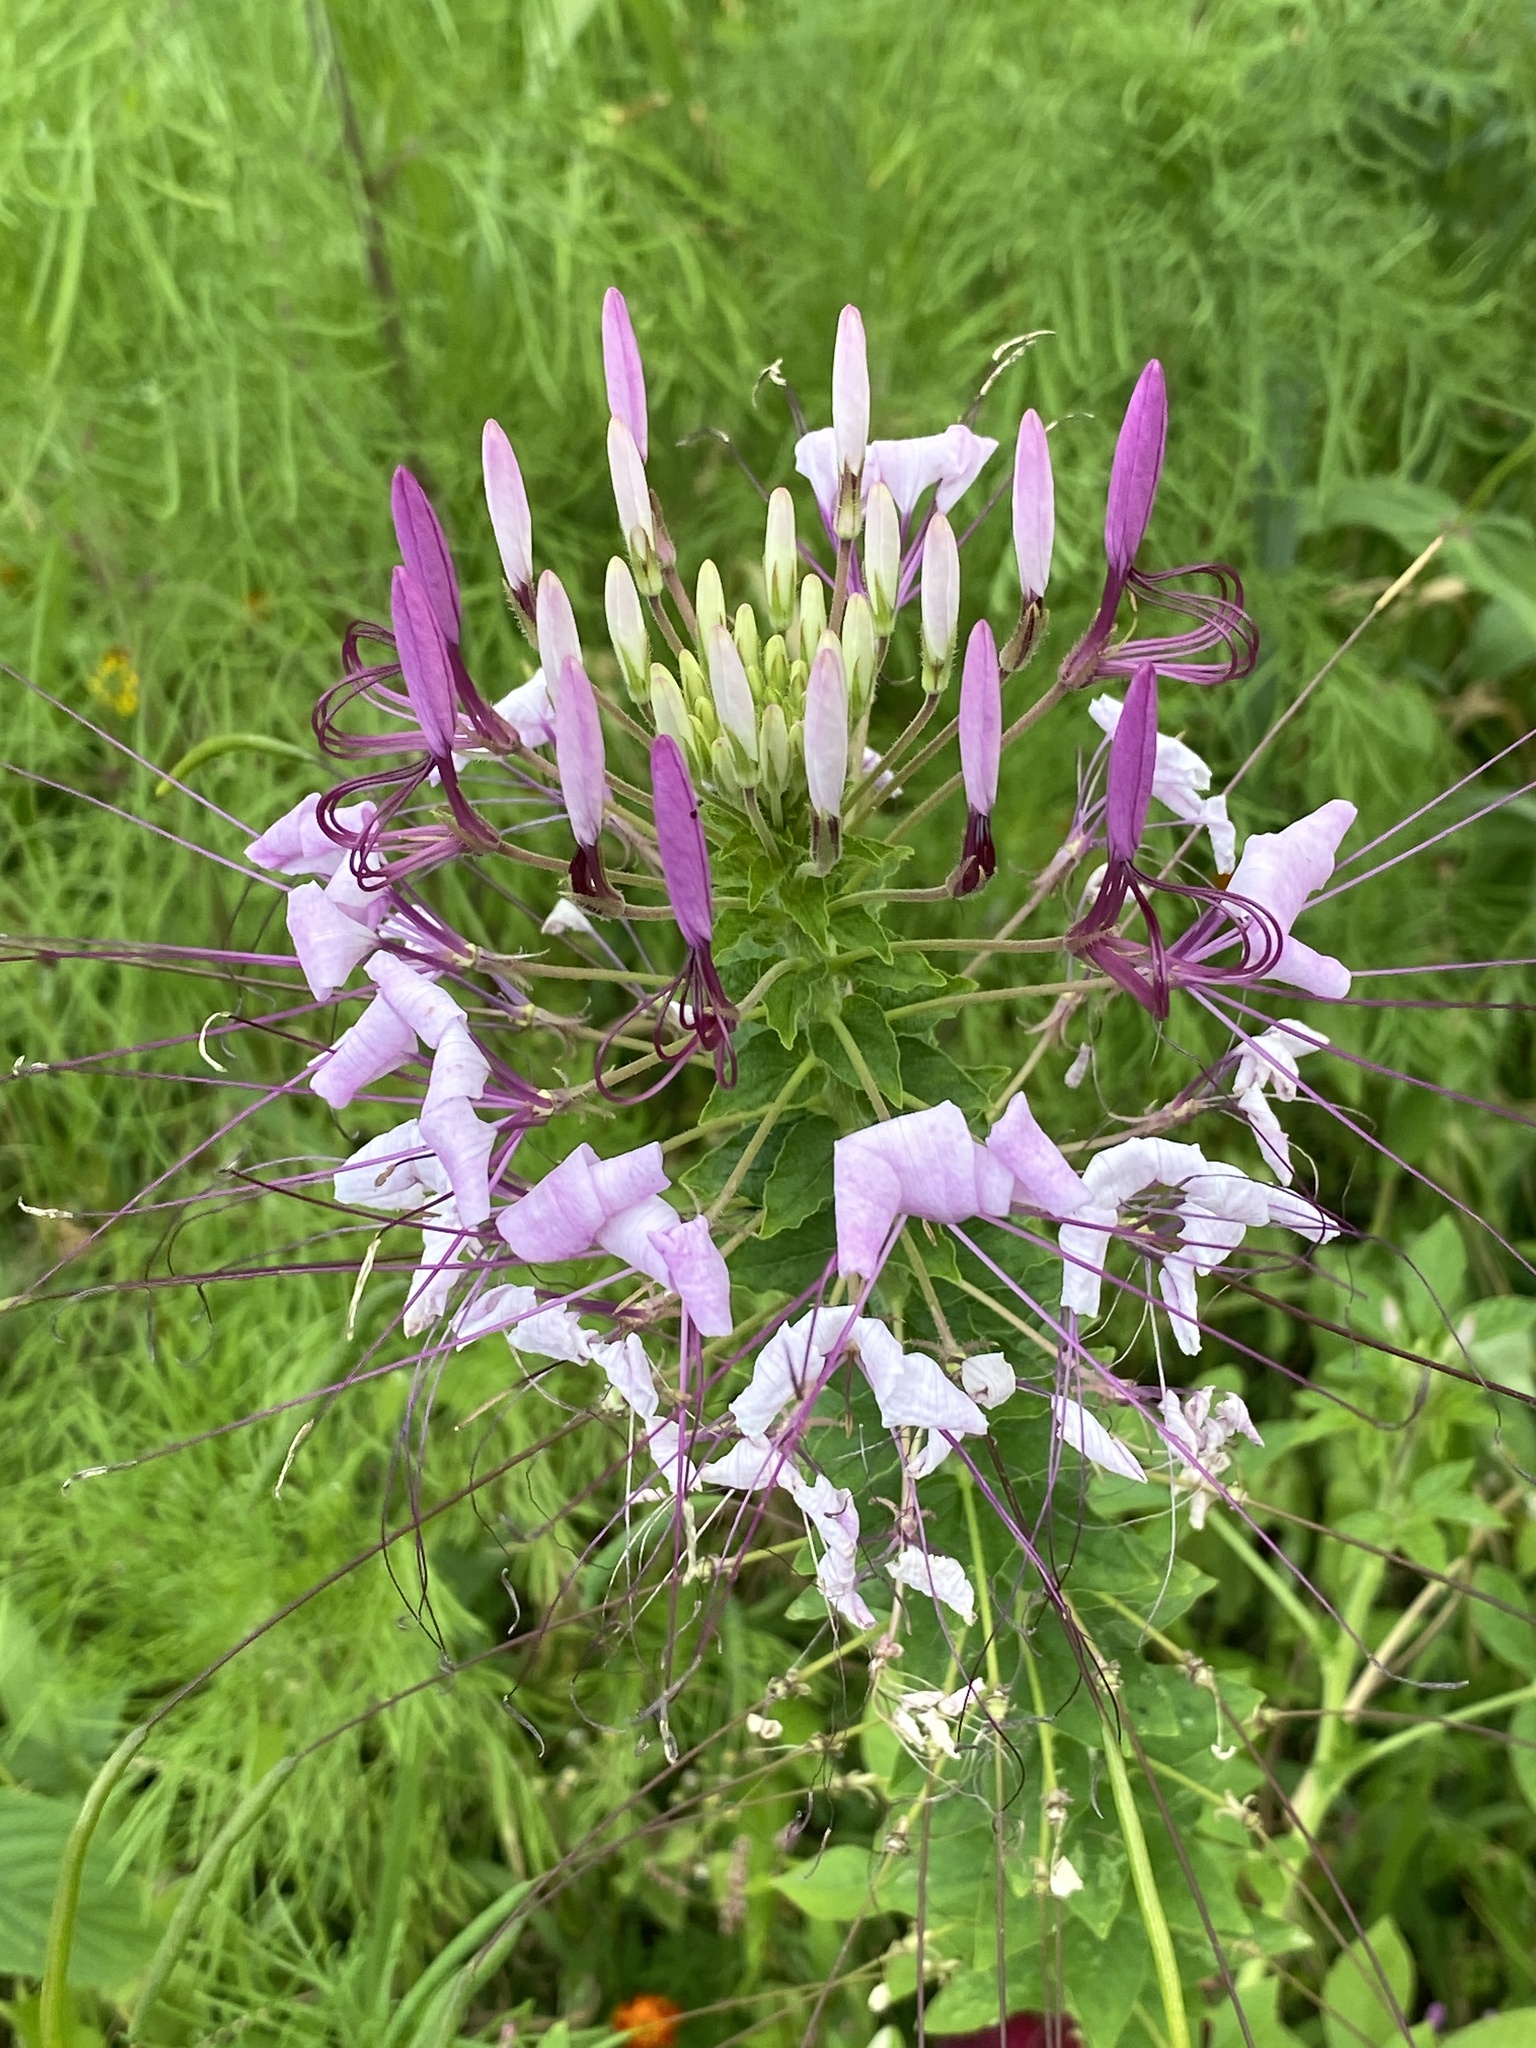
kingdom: Plantae
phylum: Tracheophyta
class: Magnoliopsida
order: Brassicales
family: Cleomaceae
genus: Tarenaya
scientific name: Tarenaya houtteana
